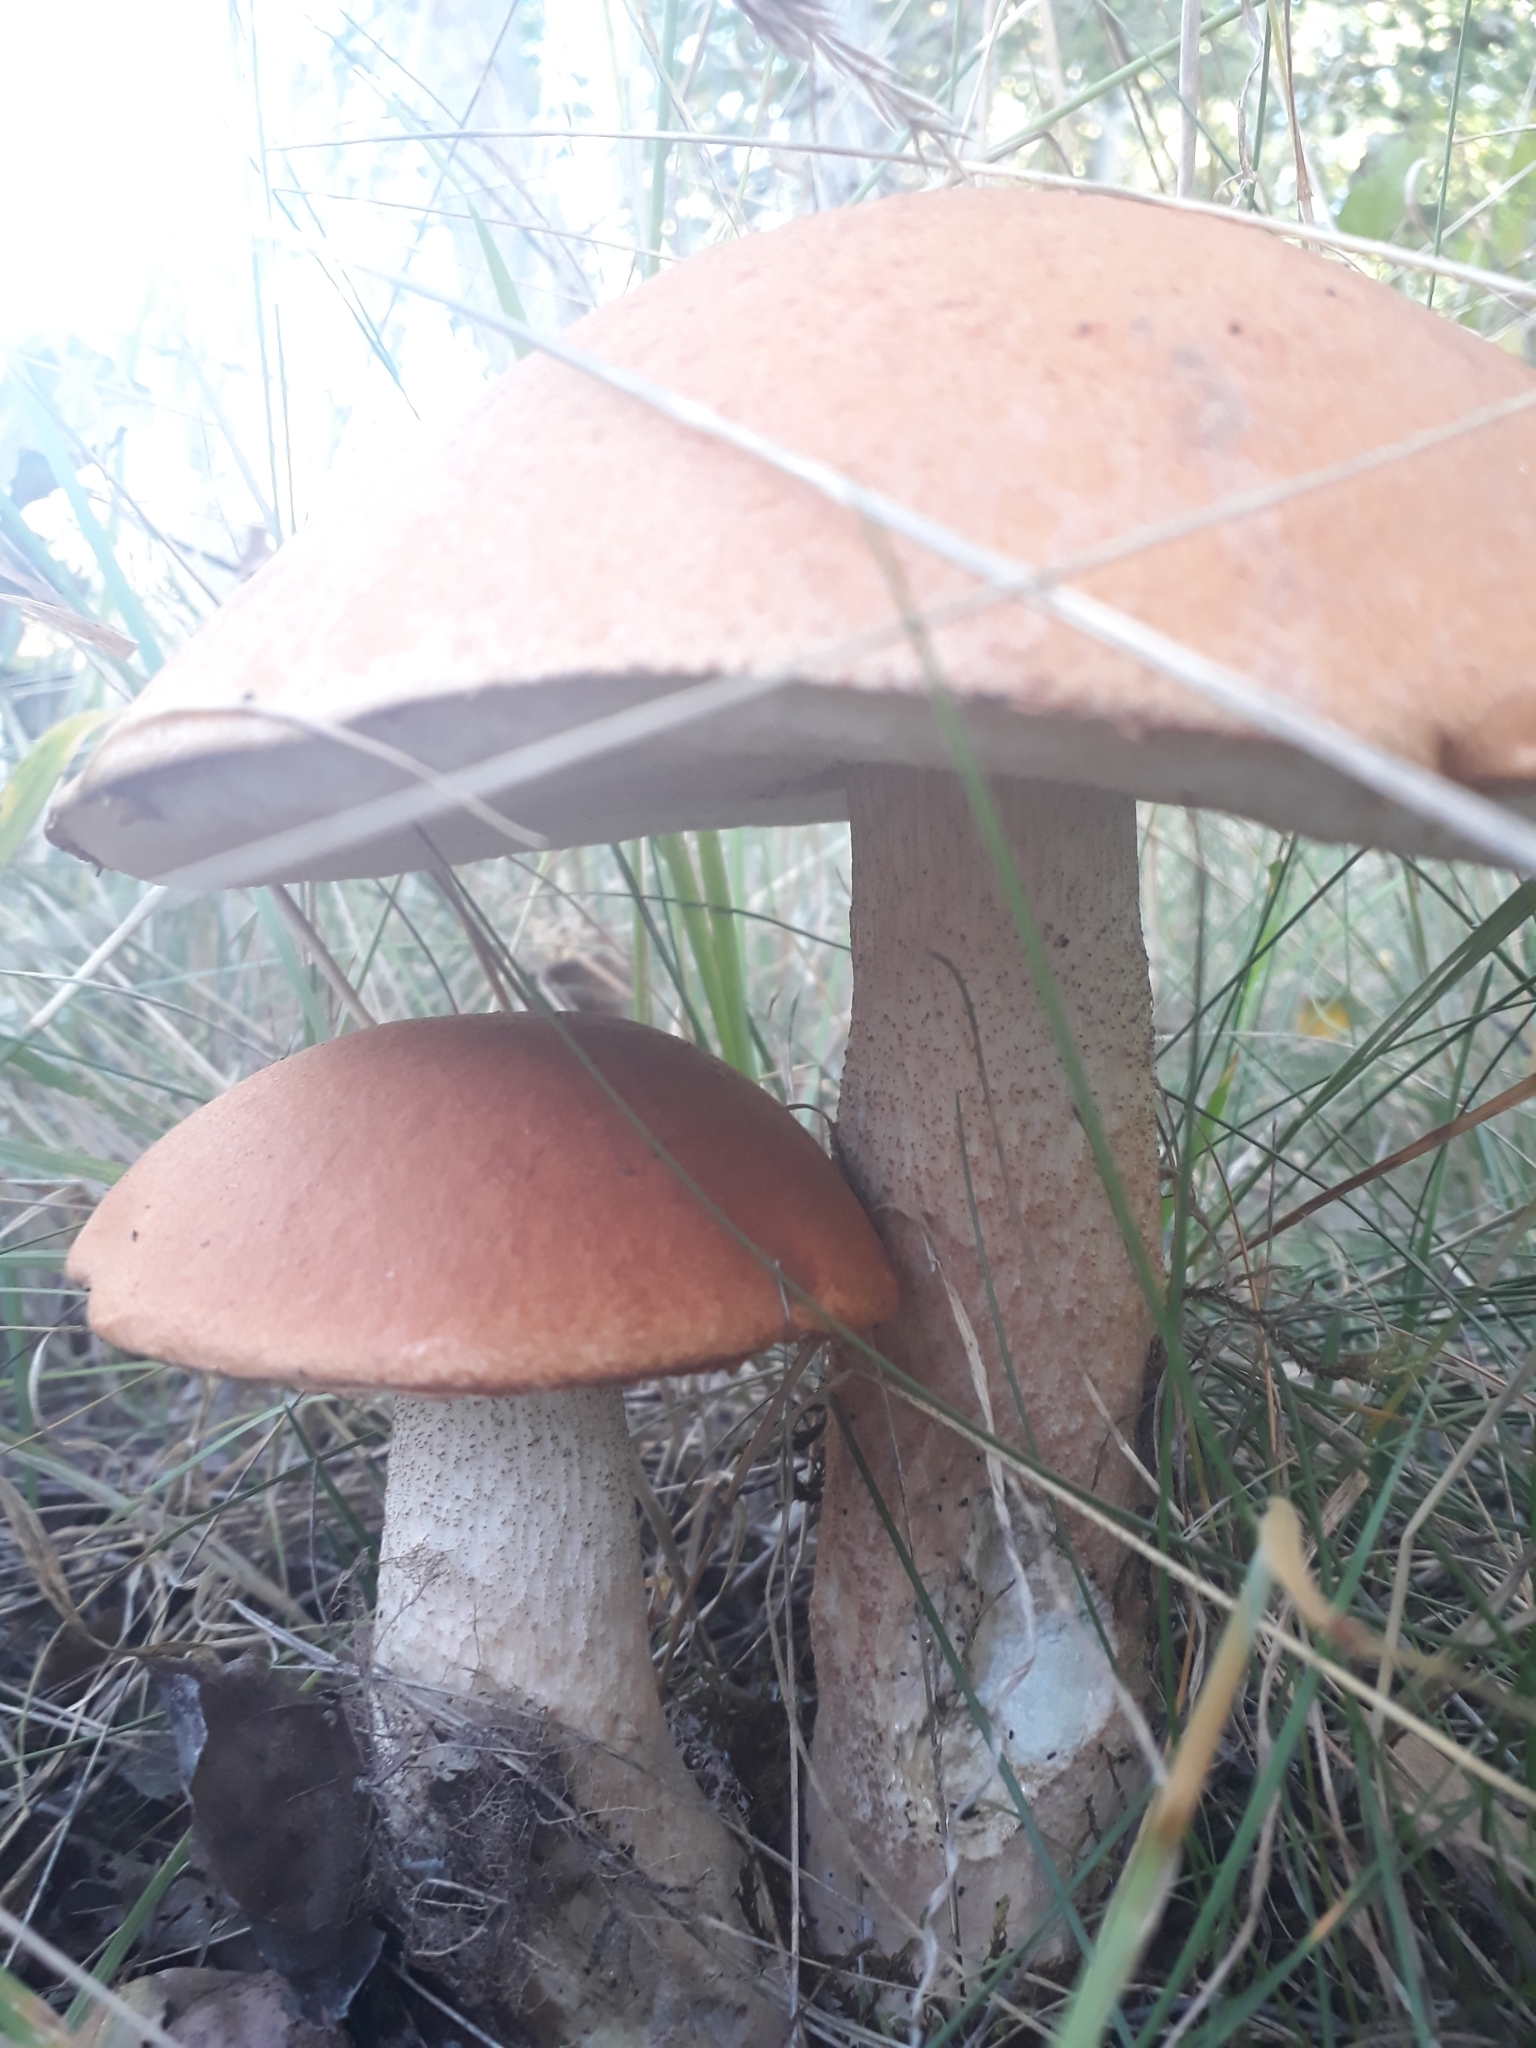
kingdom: Fungi
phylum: Basidiomycota
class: Agaricomycetes
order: Boletales
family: Boletaceae
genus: Leccinum
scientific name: Leccinum aurantiacum
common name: Orange bolete
